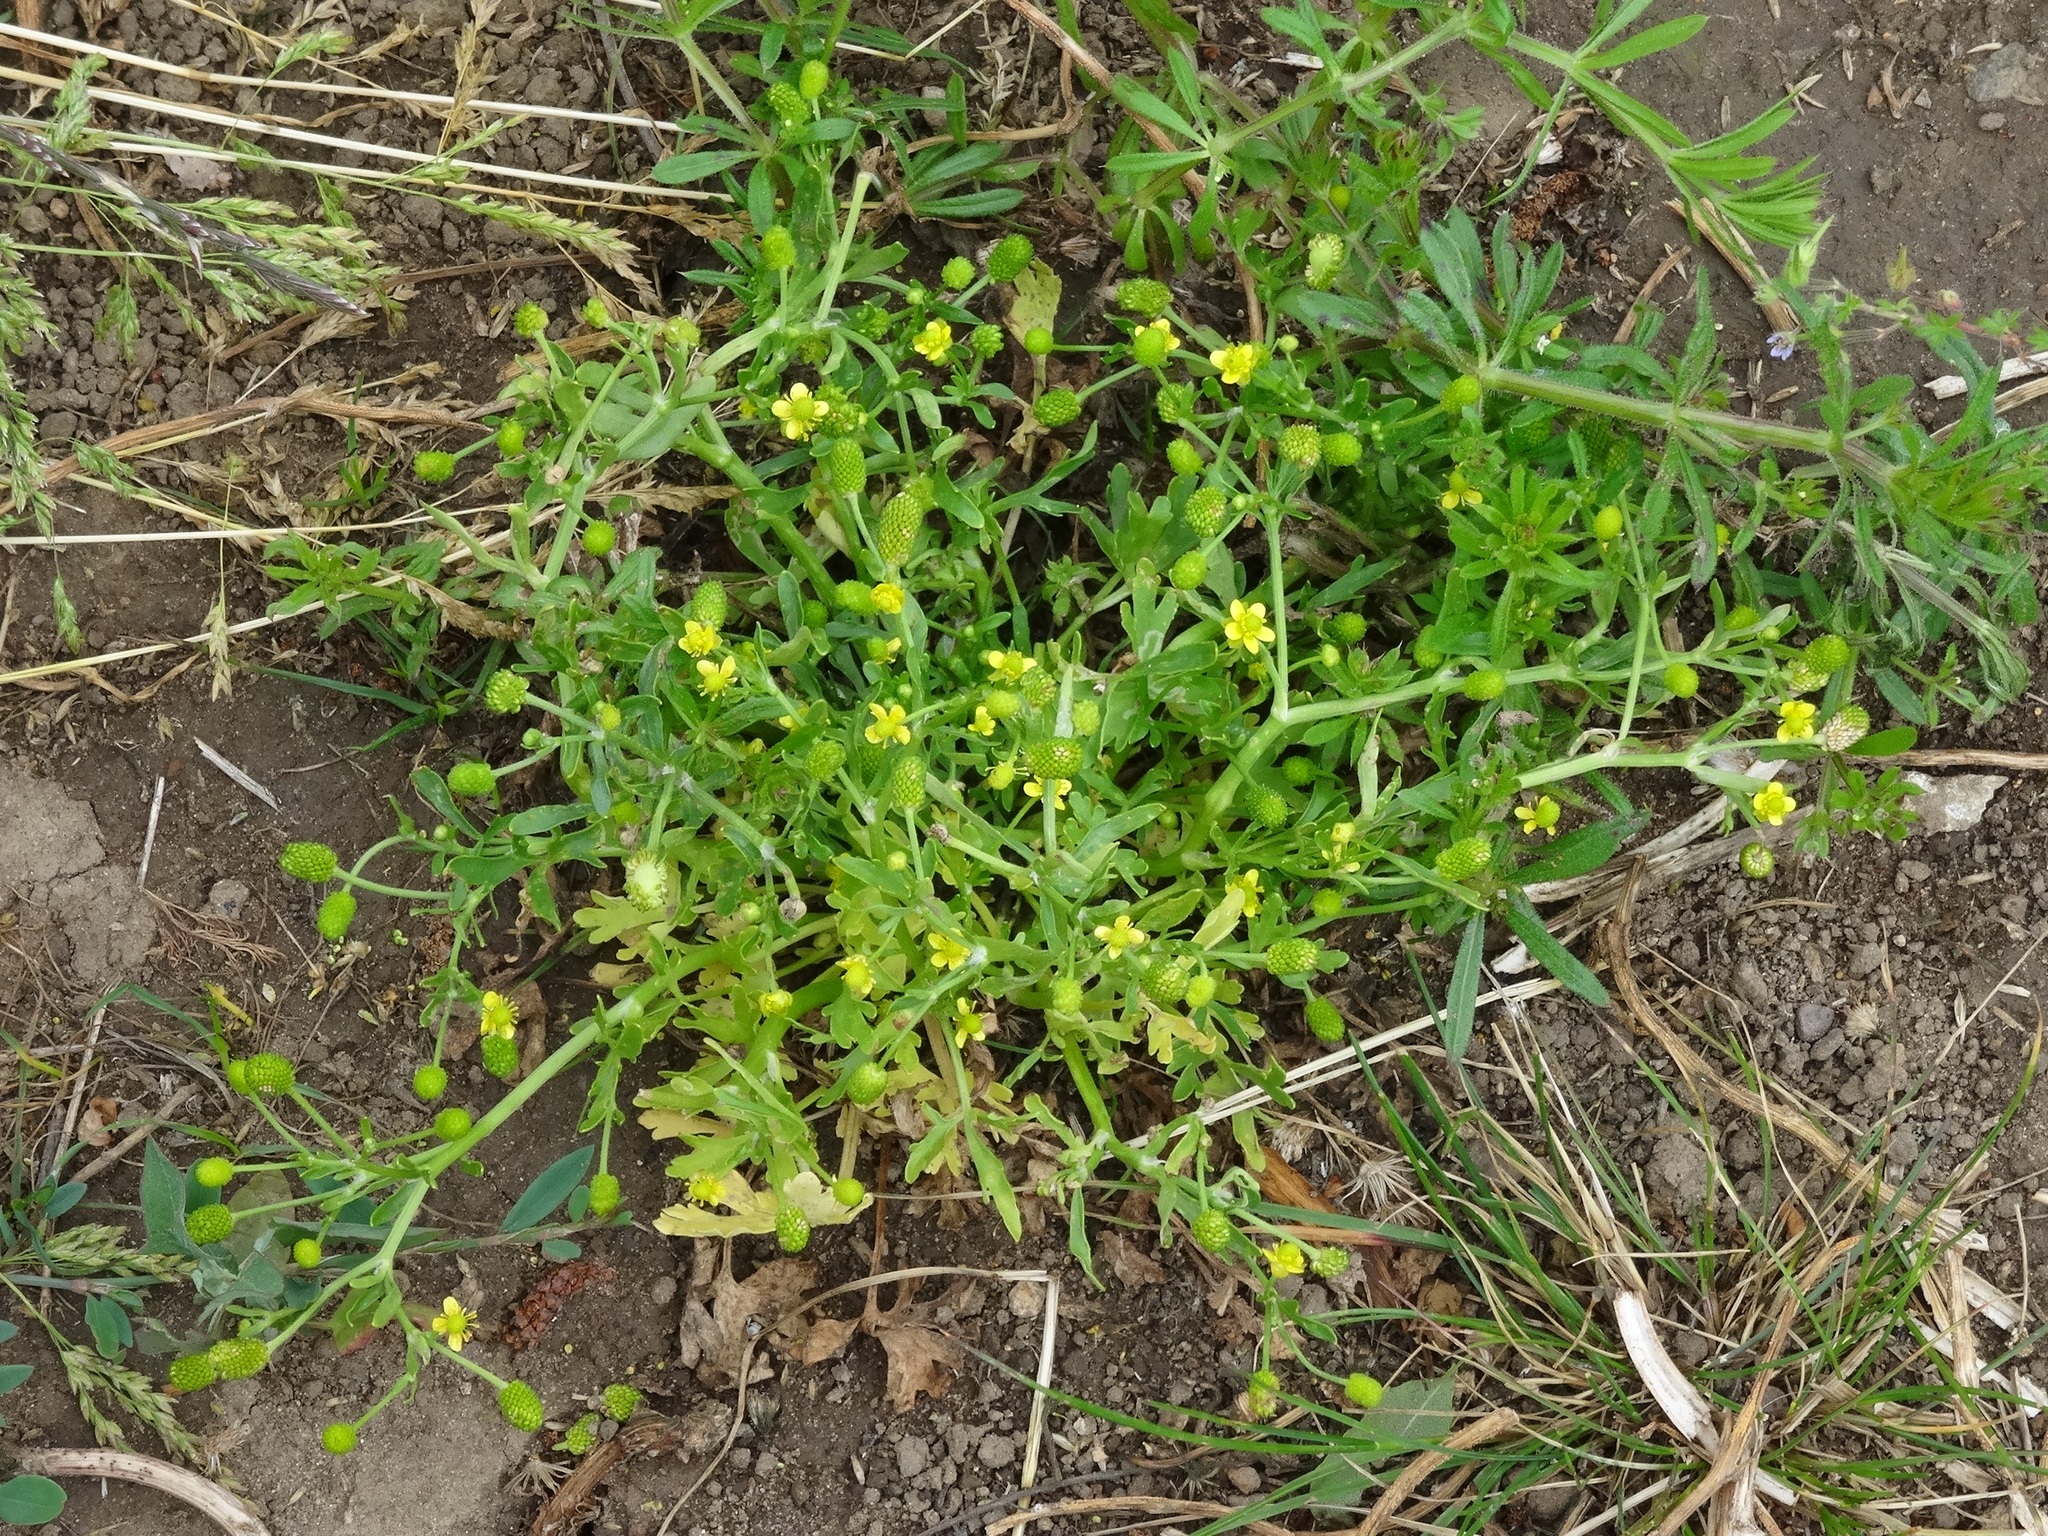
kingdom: Plantae
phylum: Tracheophyta
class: Magnoliopsida
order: Ranunculales
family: Ranunculaceae
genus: Ranunculus
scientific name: Ranunculus sceleratus
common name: Celery-leaved buttercup
